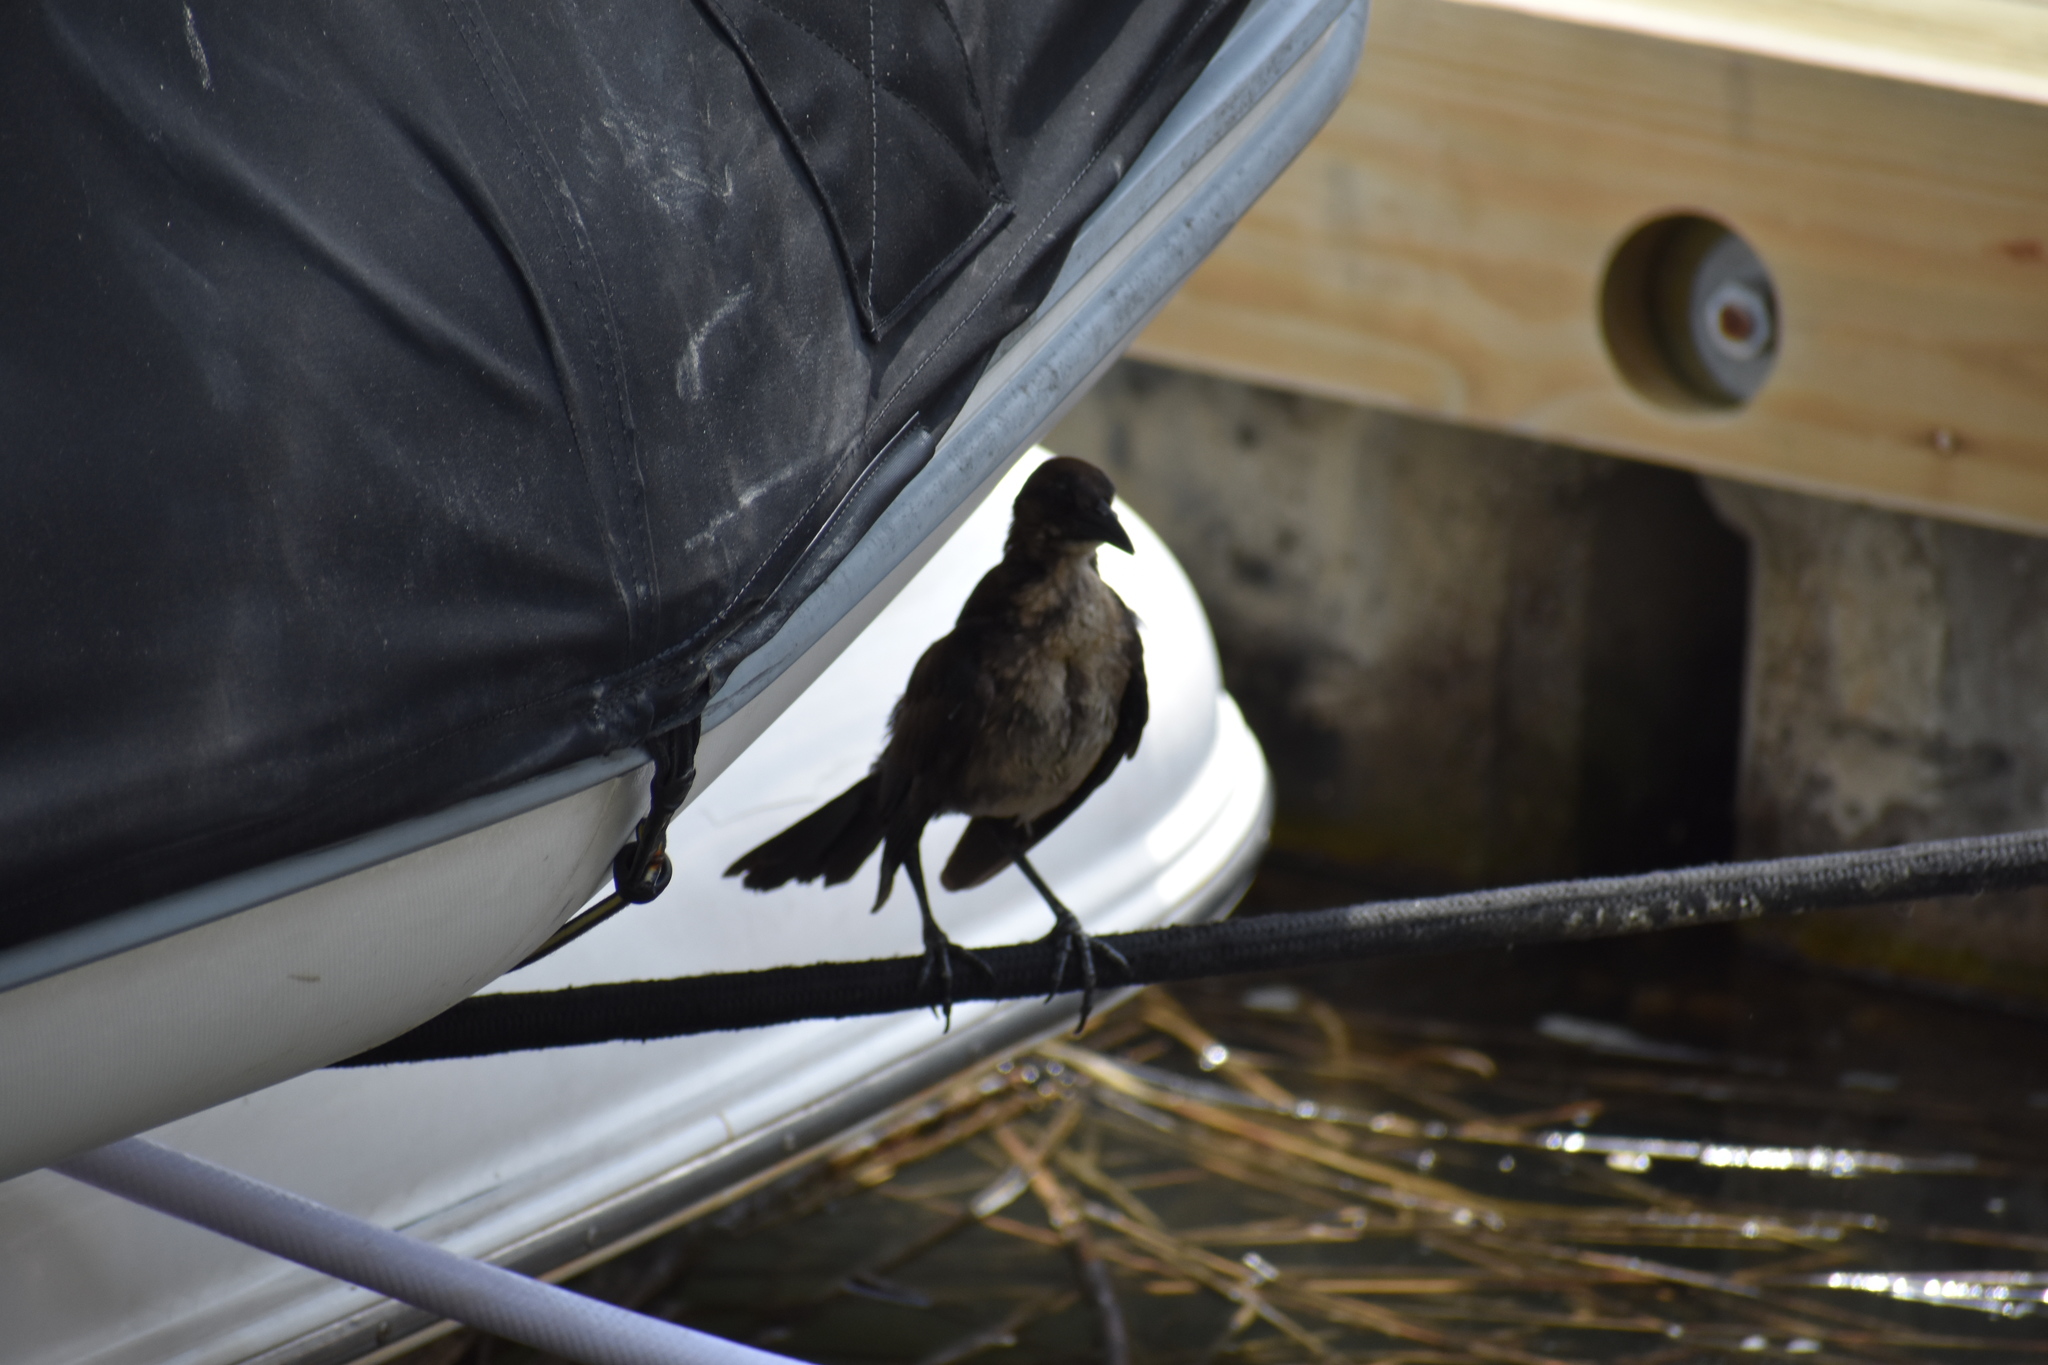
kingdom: Animalia
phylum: Chordata
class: Aves
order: Passeriformes
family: Icteridae
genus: Quiscalus
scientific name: Quiscalus major
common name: Boat-tailed grackle
